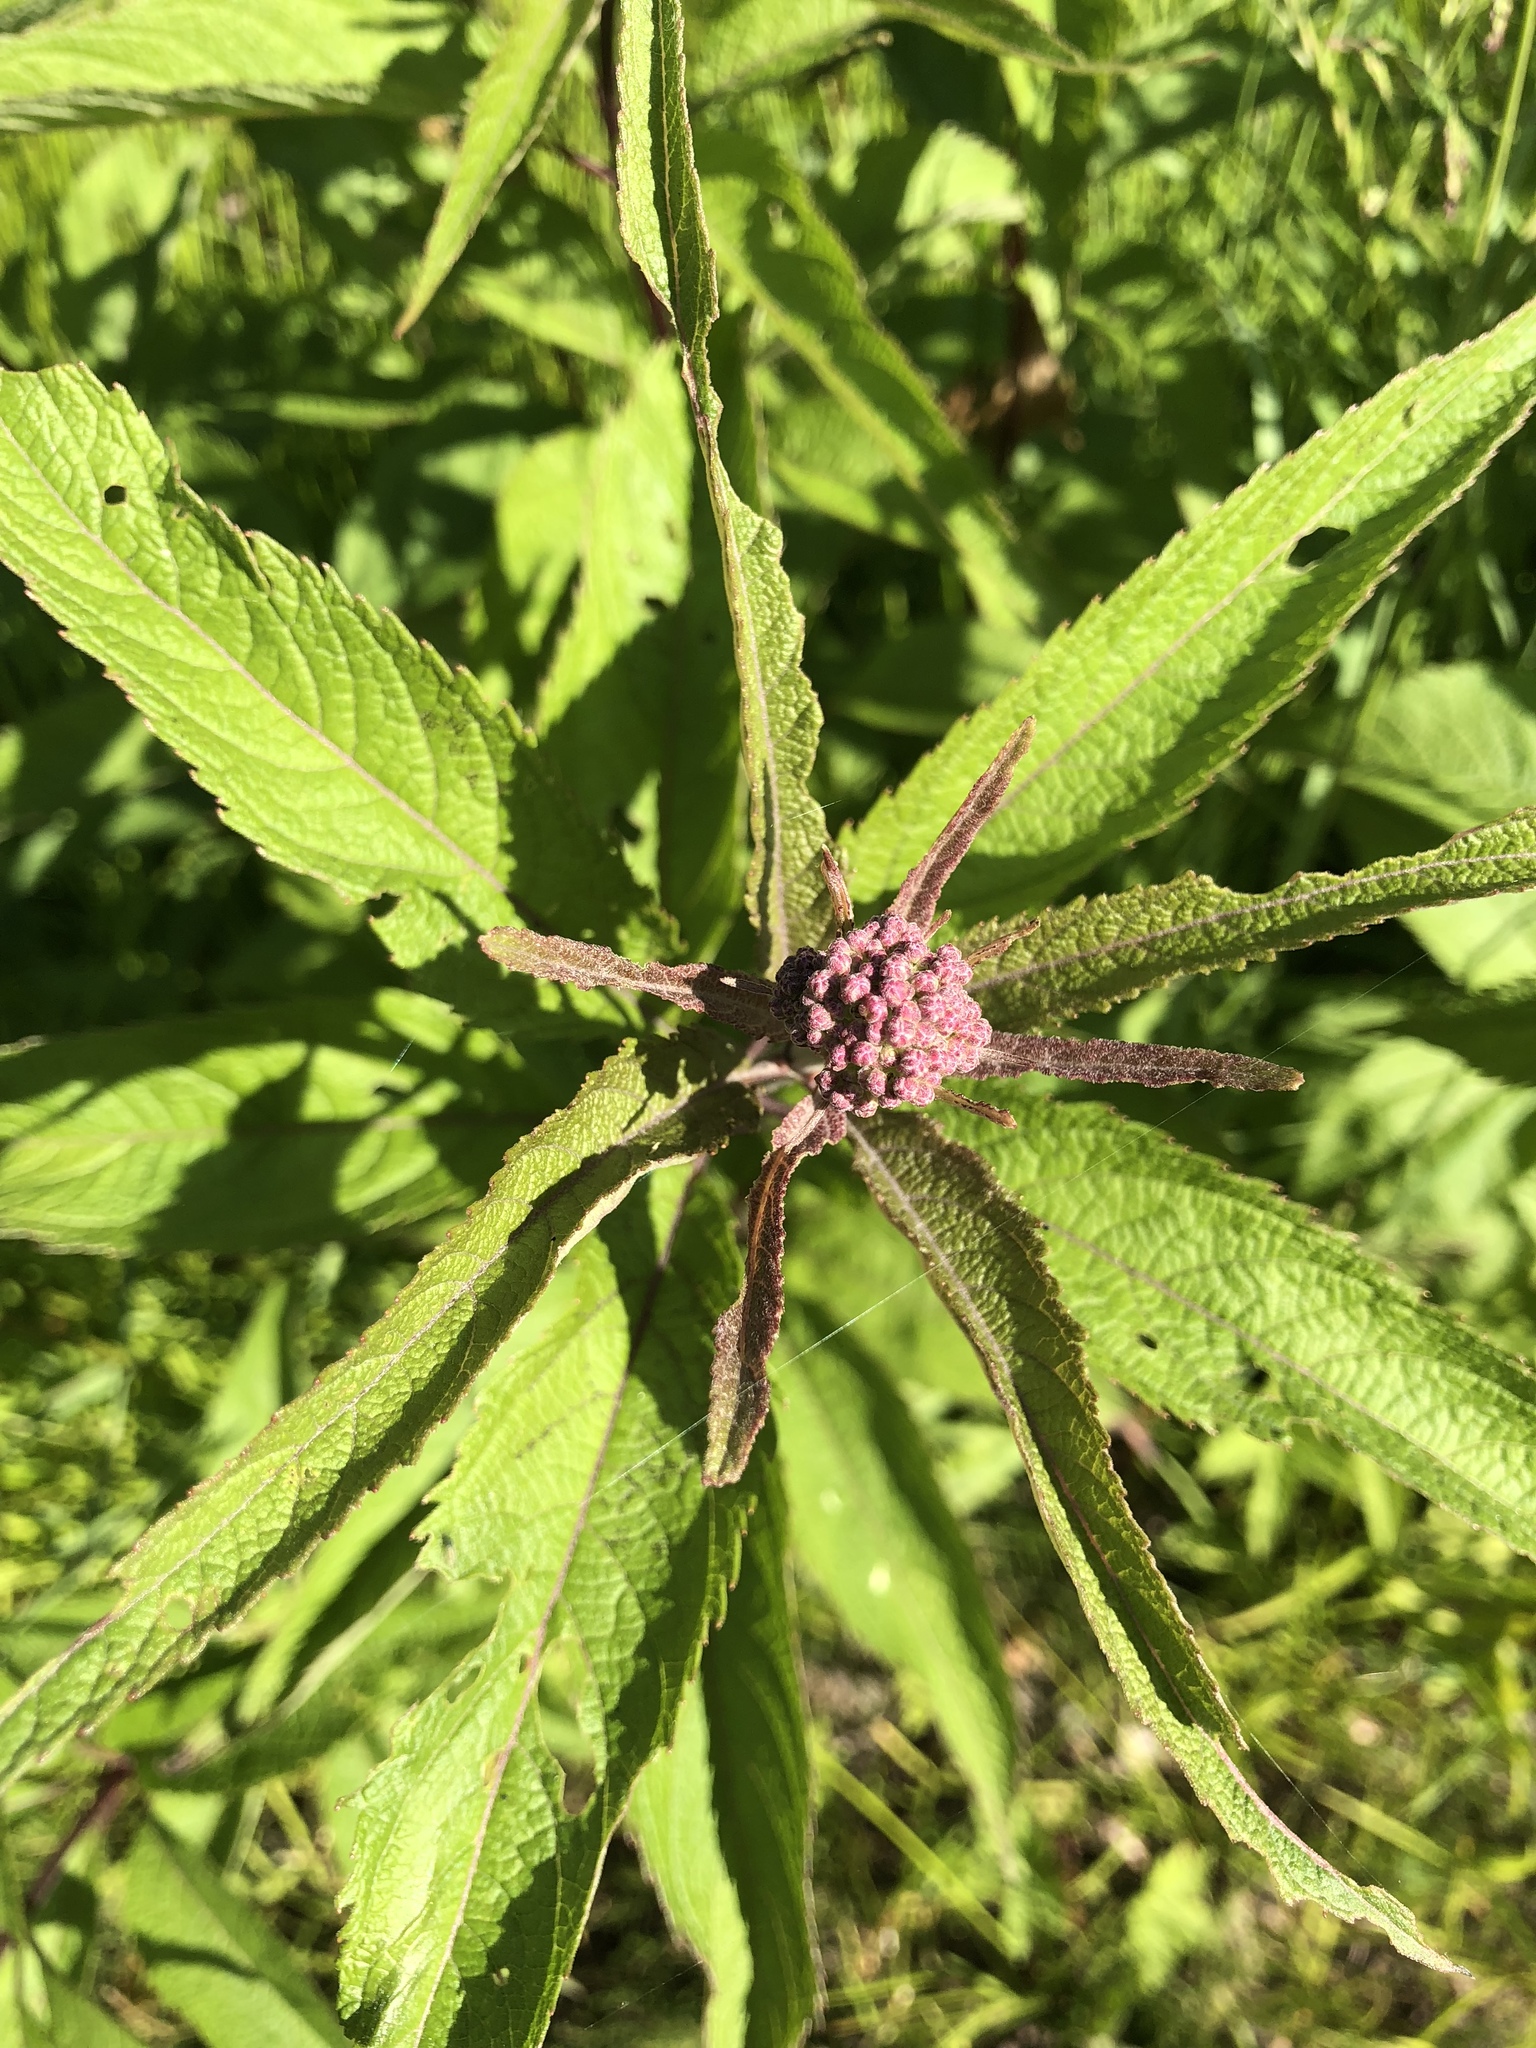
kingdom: Plantae
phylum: Tracheophyta
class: Magnoliopsida
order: Asterales
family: Asteraceae
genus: Eutrochium
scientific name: Eutrochium maculatum
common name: Spotted joe pye weed
